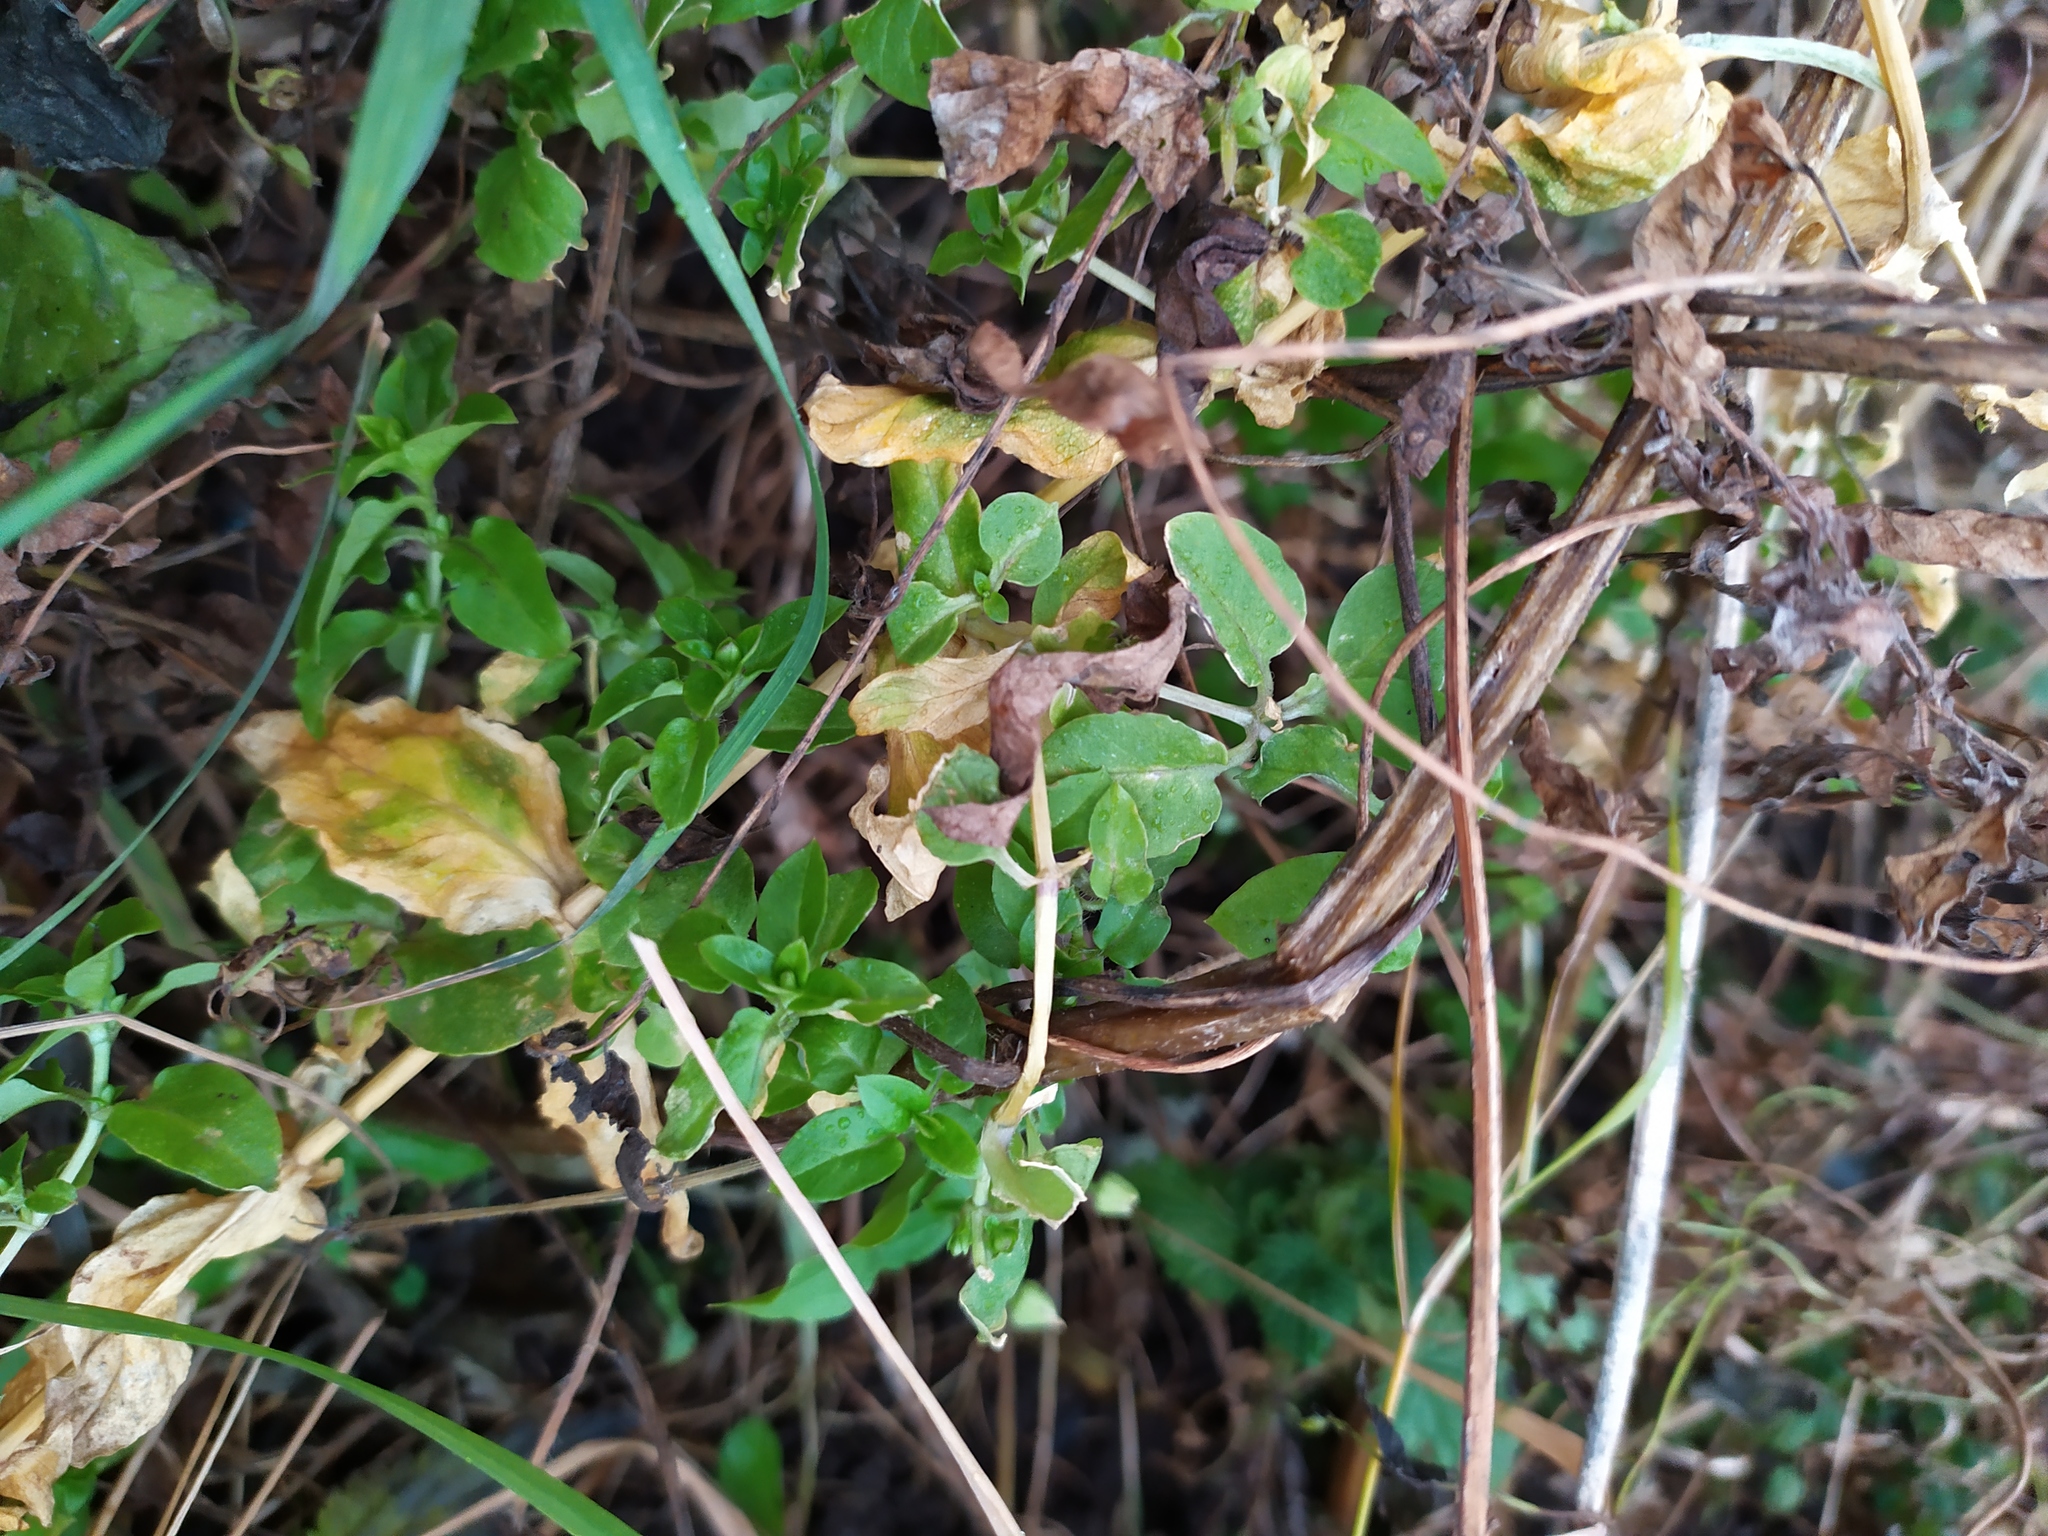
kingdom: Plantae
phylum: Tracheophyta
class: Magnoliopsida
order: Caryophyllales
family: Caryophyllaceae
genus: Stellaria
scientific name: Stellaria aquatica
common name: Water chickweed
